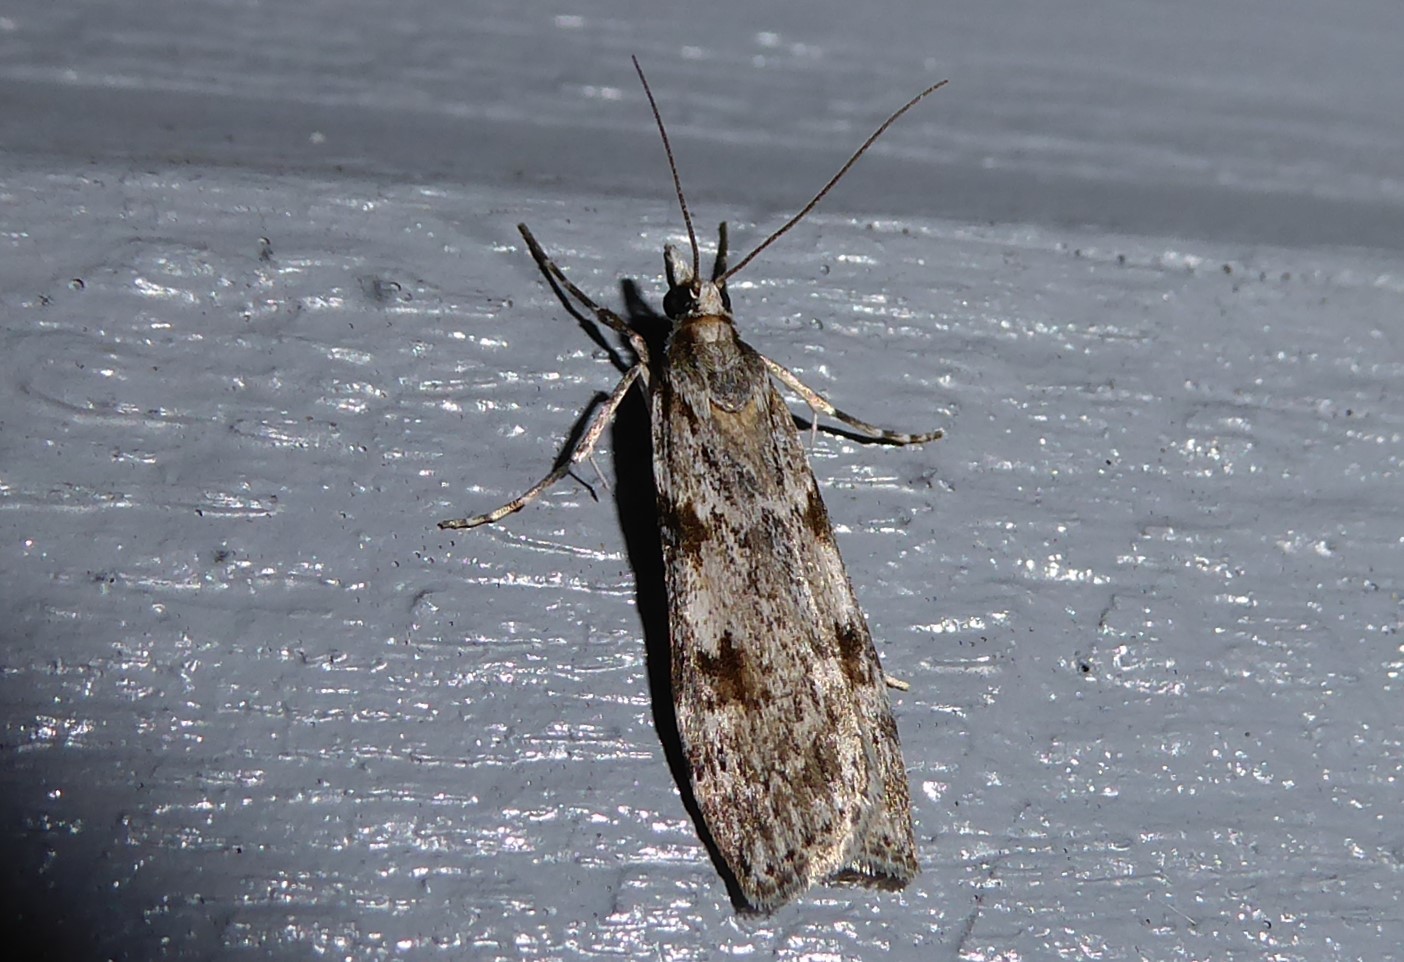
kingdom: Animalia
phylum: Arthropoda
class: Insecta
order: Lepidoptera
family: Crambidae
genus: Scoparia
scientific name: Scoparia halopis
